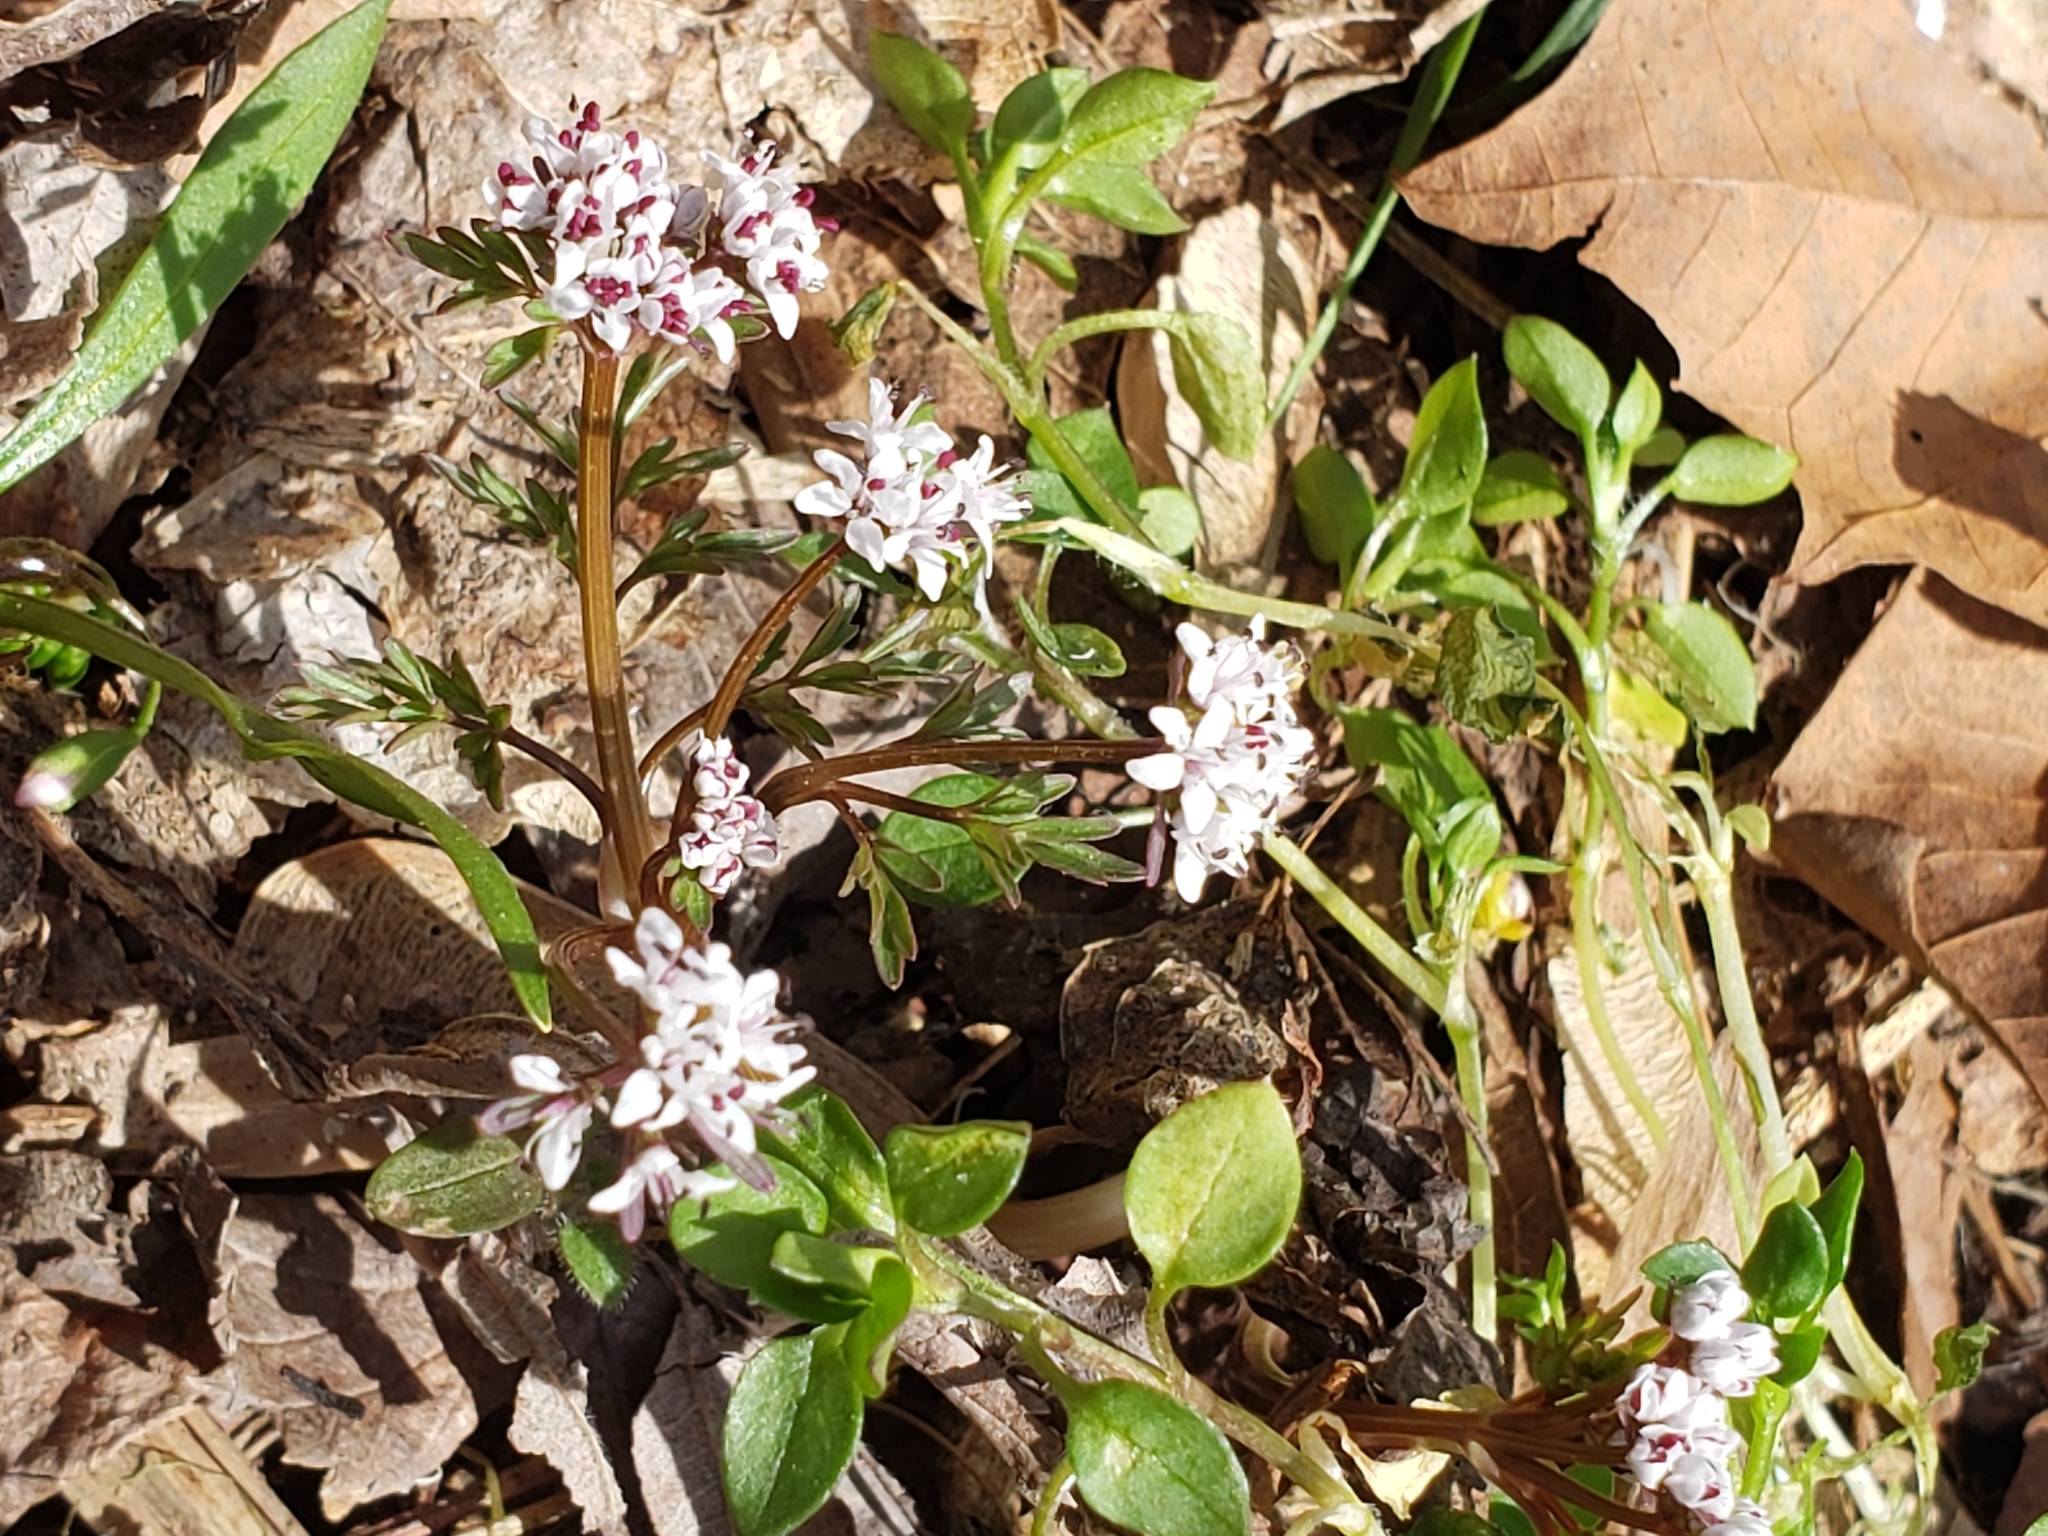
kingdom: Plantae
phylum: Tracheophyta
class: Magnoliopsida
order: Apiales
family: Apiaceae
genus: Erigenia
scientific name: Erigenia bulbosa
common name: Pepper-and-salt
